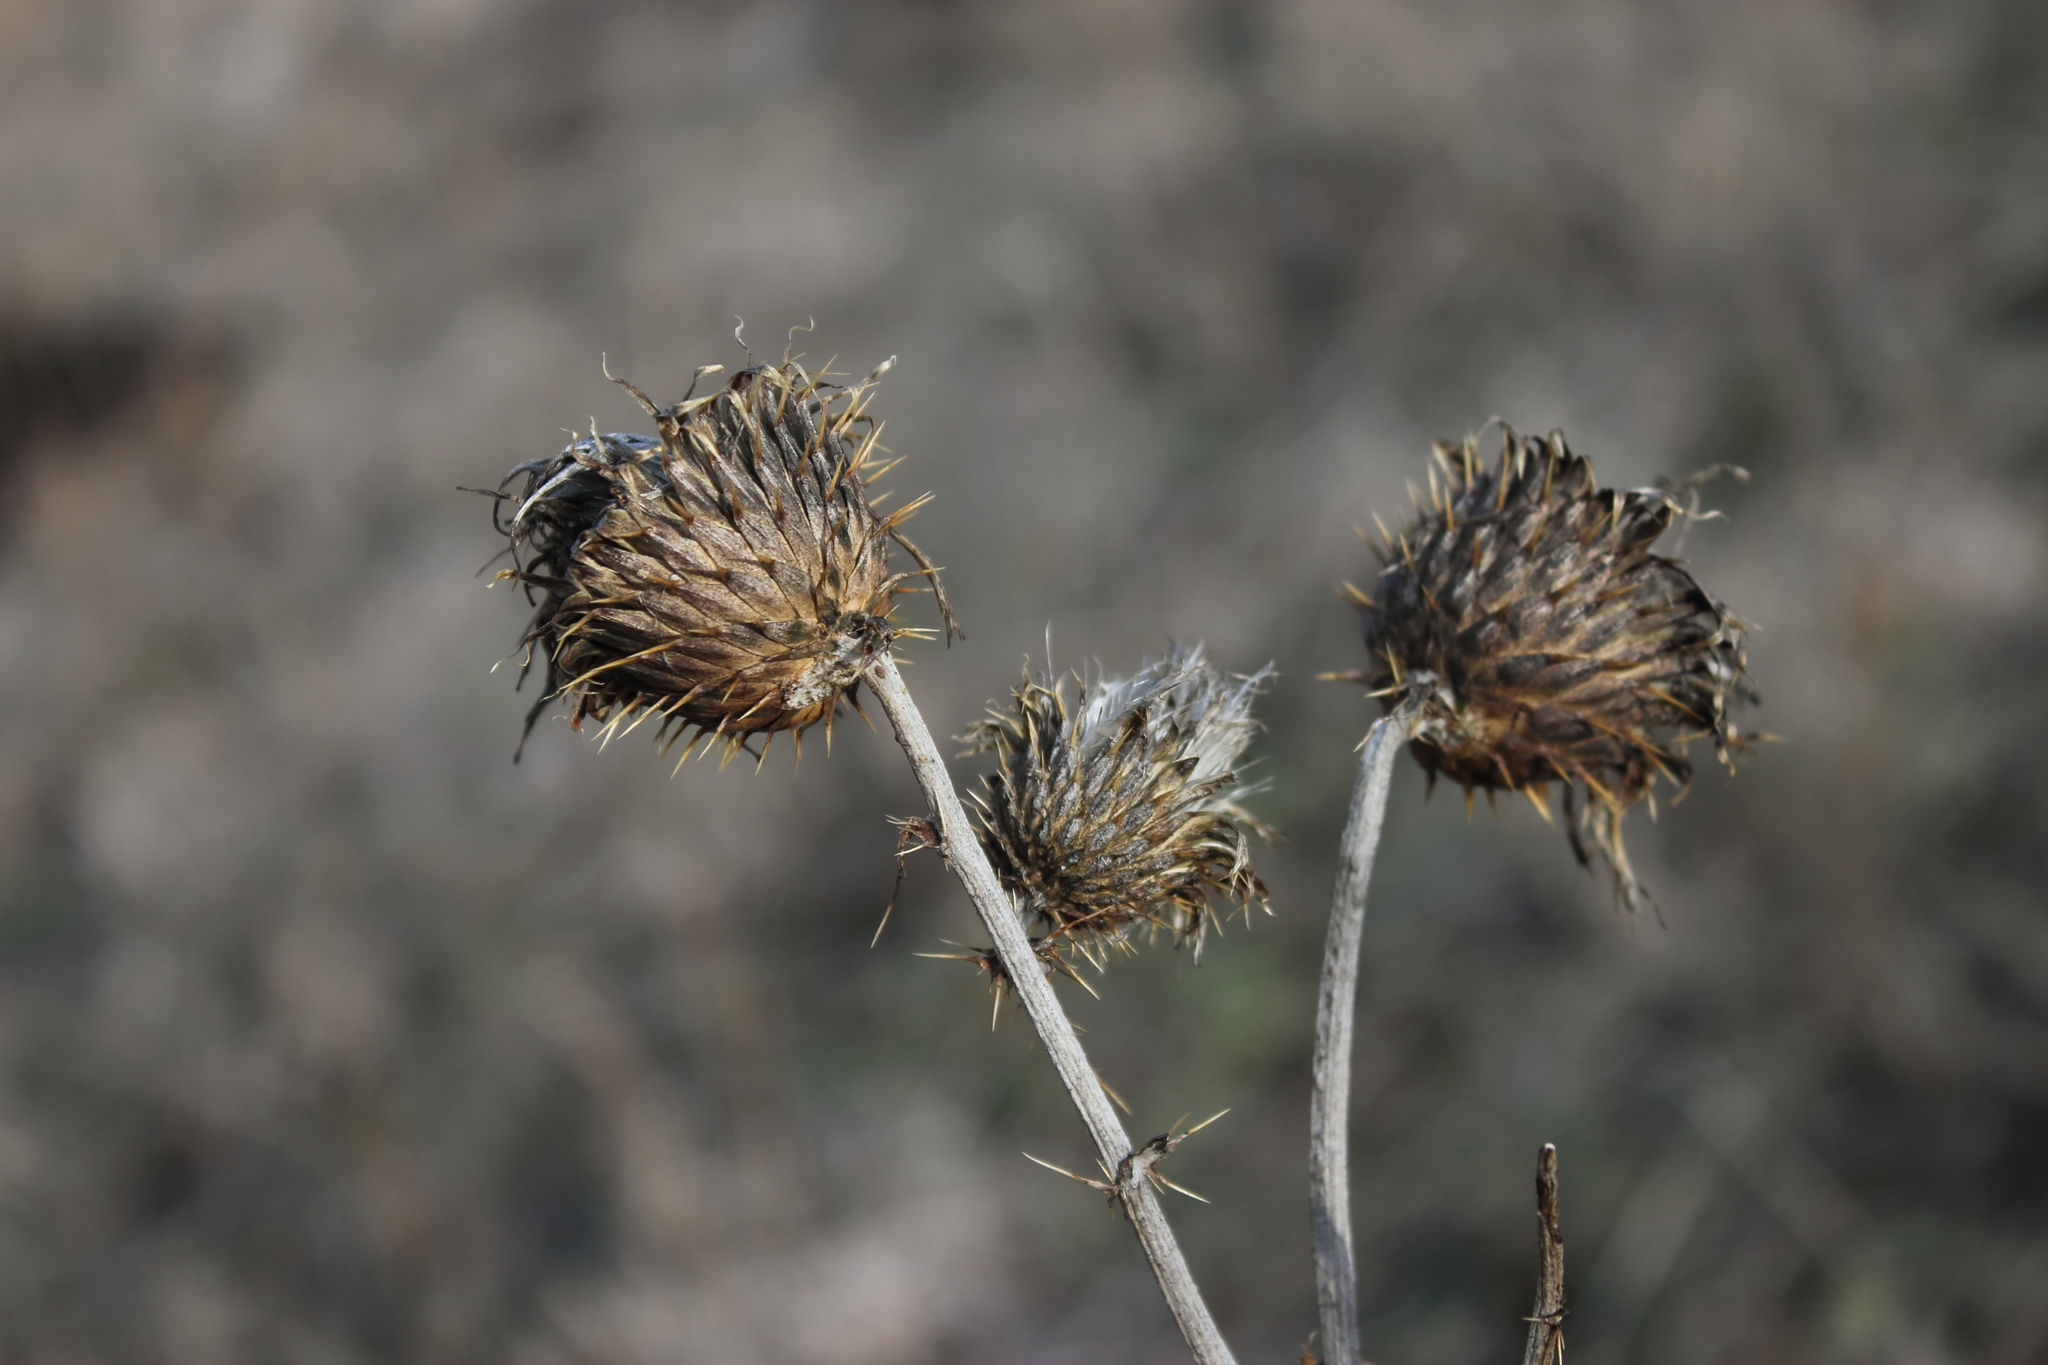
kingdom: Plantae
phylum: Tracheophyta
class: Magnoliopsida
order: Asterales
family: Asteraceae
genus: Cirsium
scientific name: Cirsium undulatum
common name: Pasture thistle
